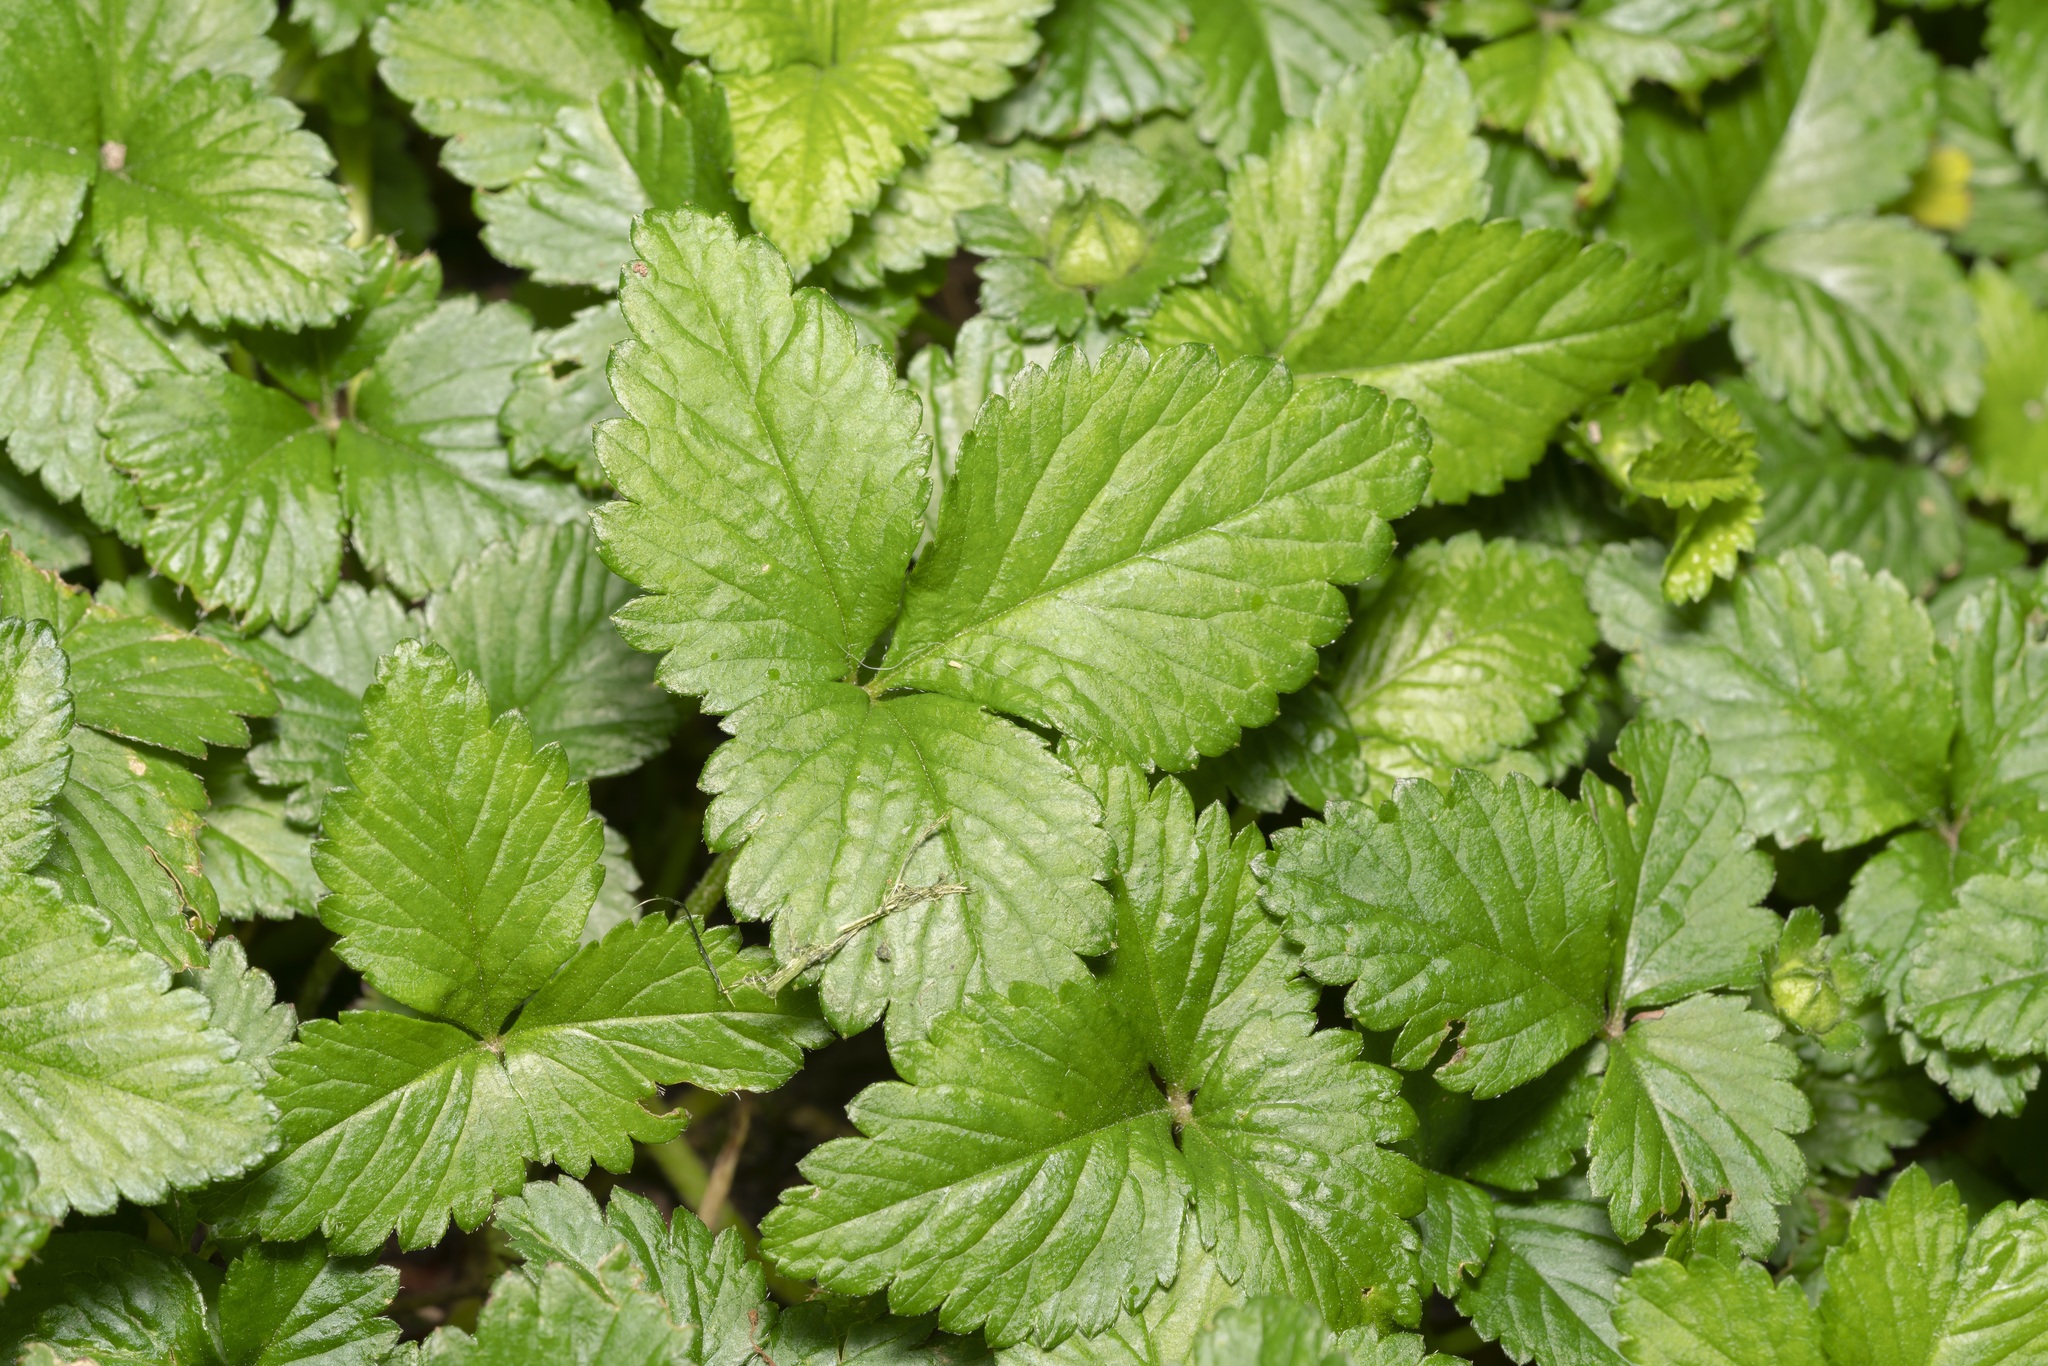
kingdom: Plantae
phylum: Tracheophyta
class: Magnoliopsida
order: Rosales
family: Rosaceae
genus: Potentilla
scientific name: Potentilla indica
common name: Yellow-flowered strawberry
